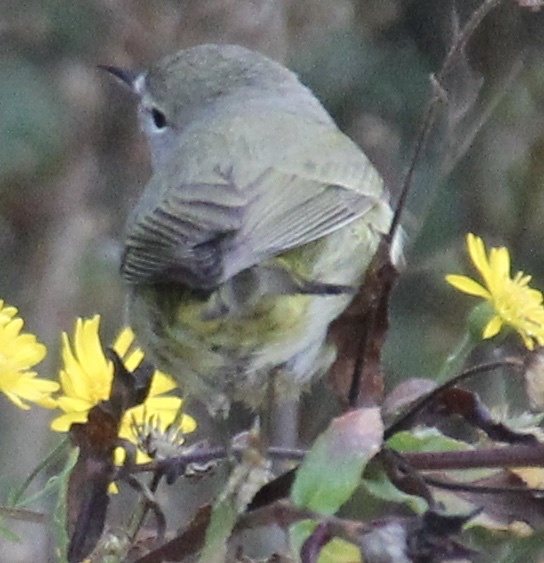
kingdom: Animalia
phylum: Chordata
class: Aves
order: Passeriformes
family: Parulidae
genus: Leiothlypis
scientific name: Leiothlypis celata
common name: Orange-crowned warbler
